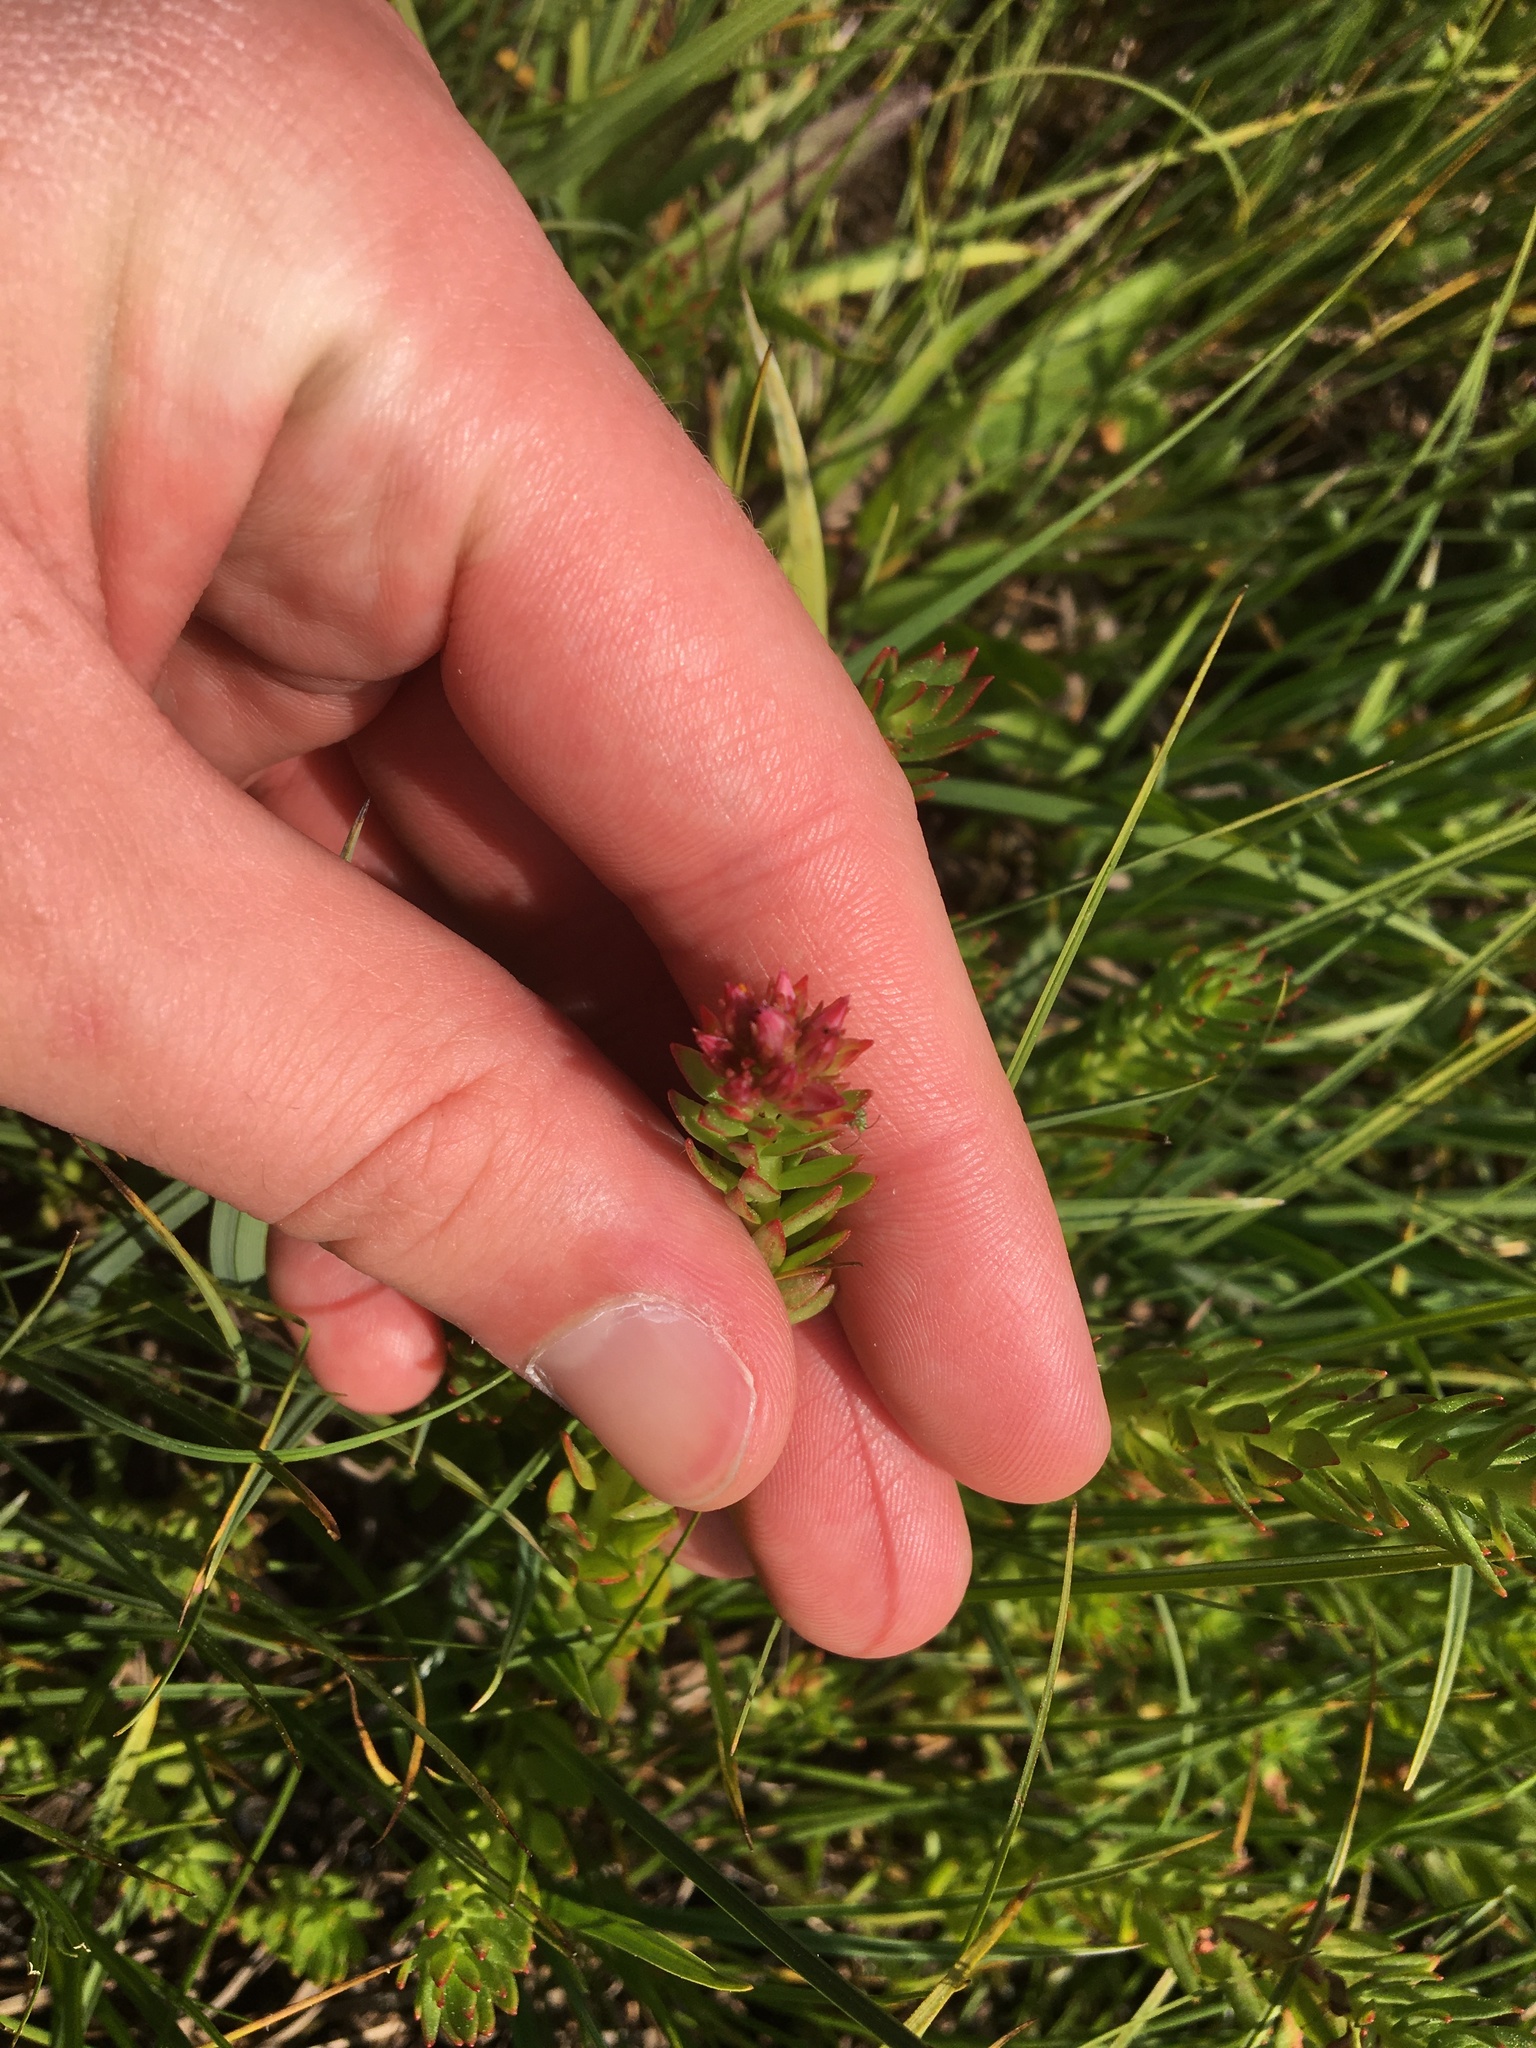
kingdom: Plantae
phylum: Tracheophyta
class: Magnoliopsida
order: Saxifragales
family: Crassulaceae
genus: Rhodiola
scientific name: Rhodiola rhodantha
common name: Red orpine
